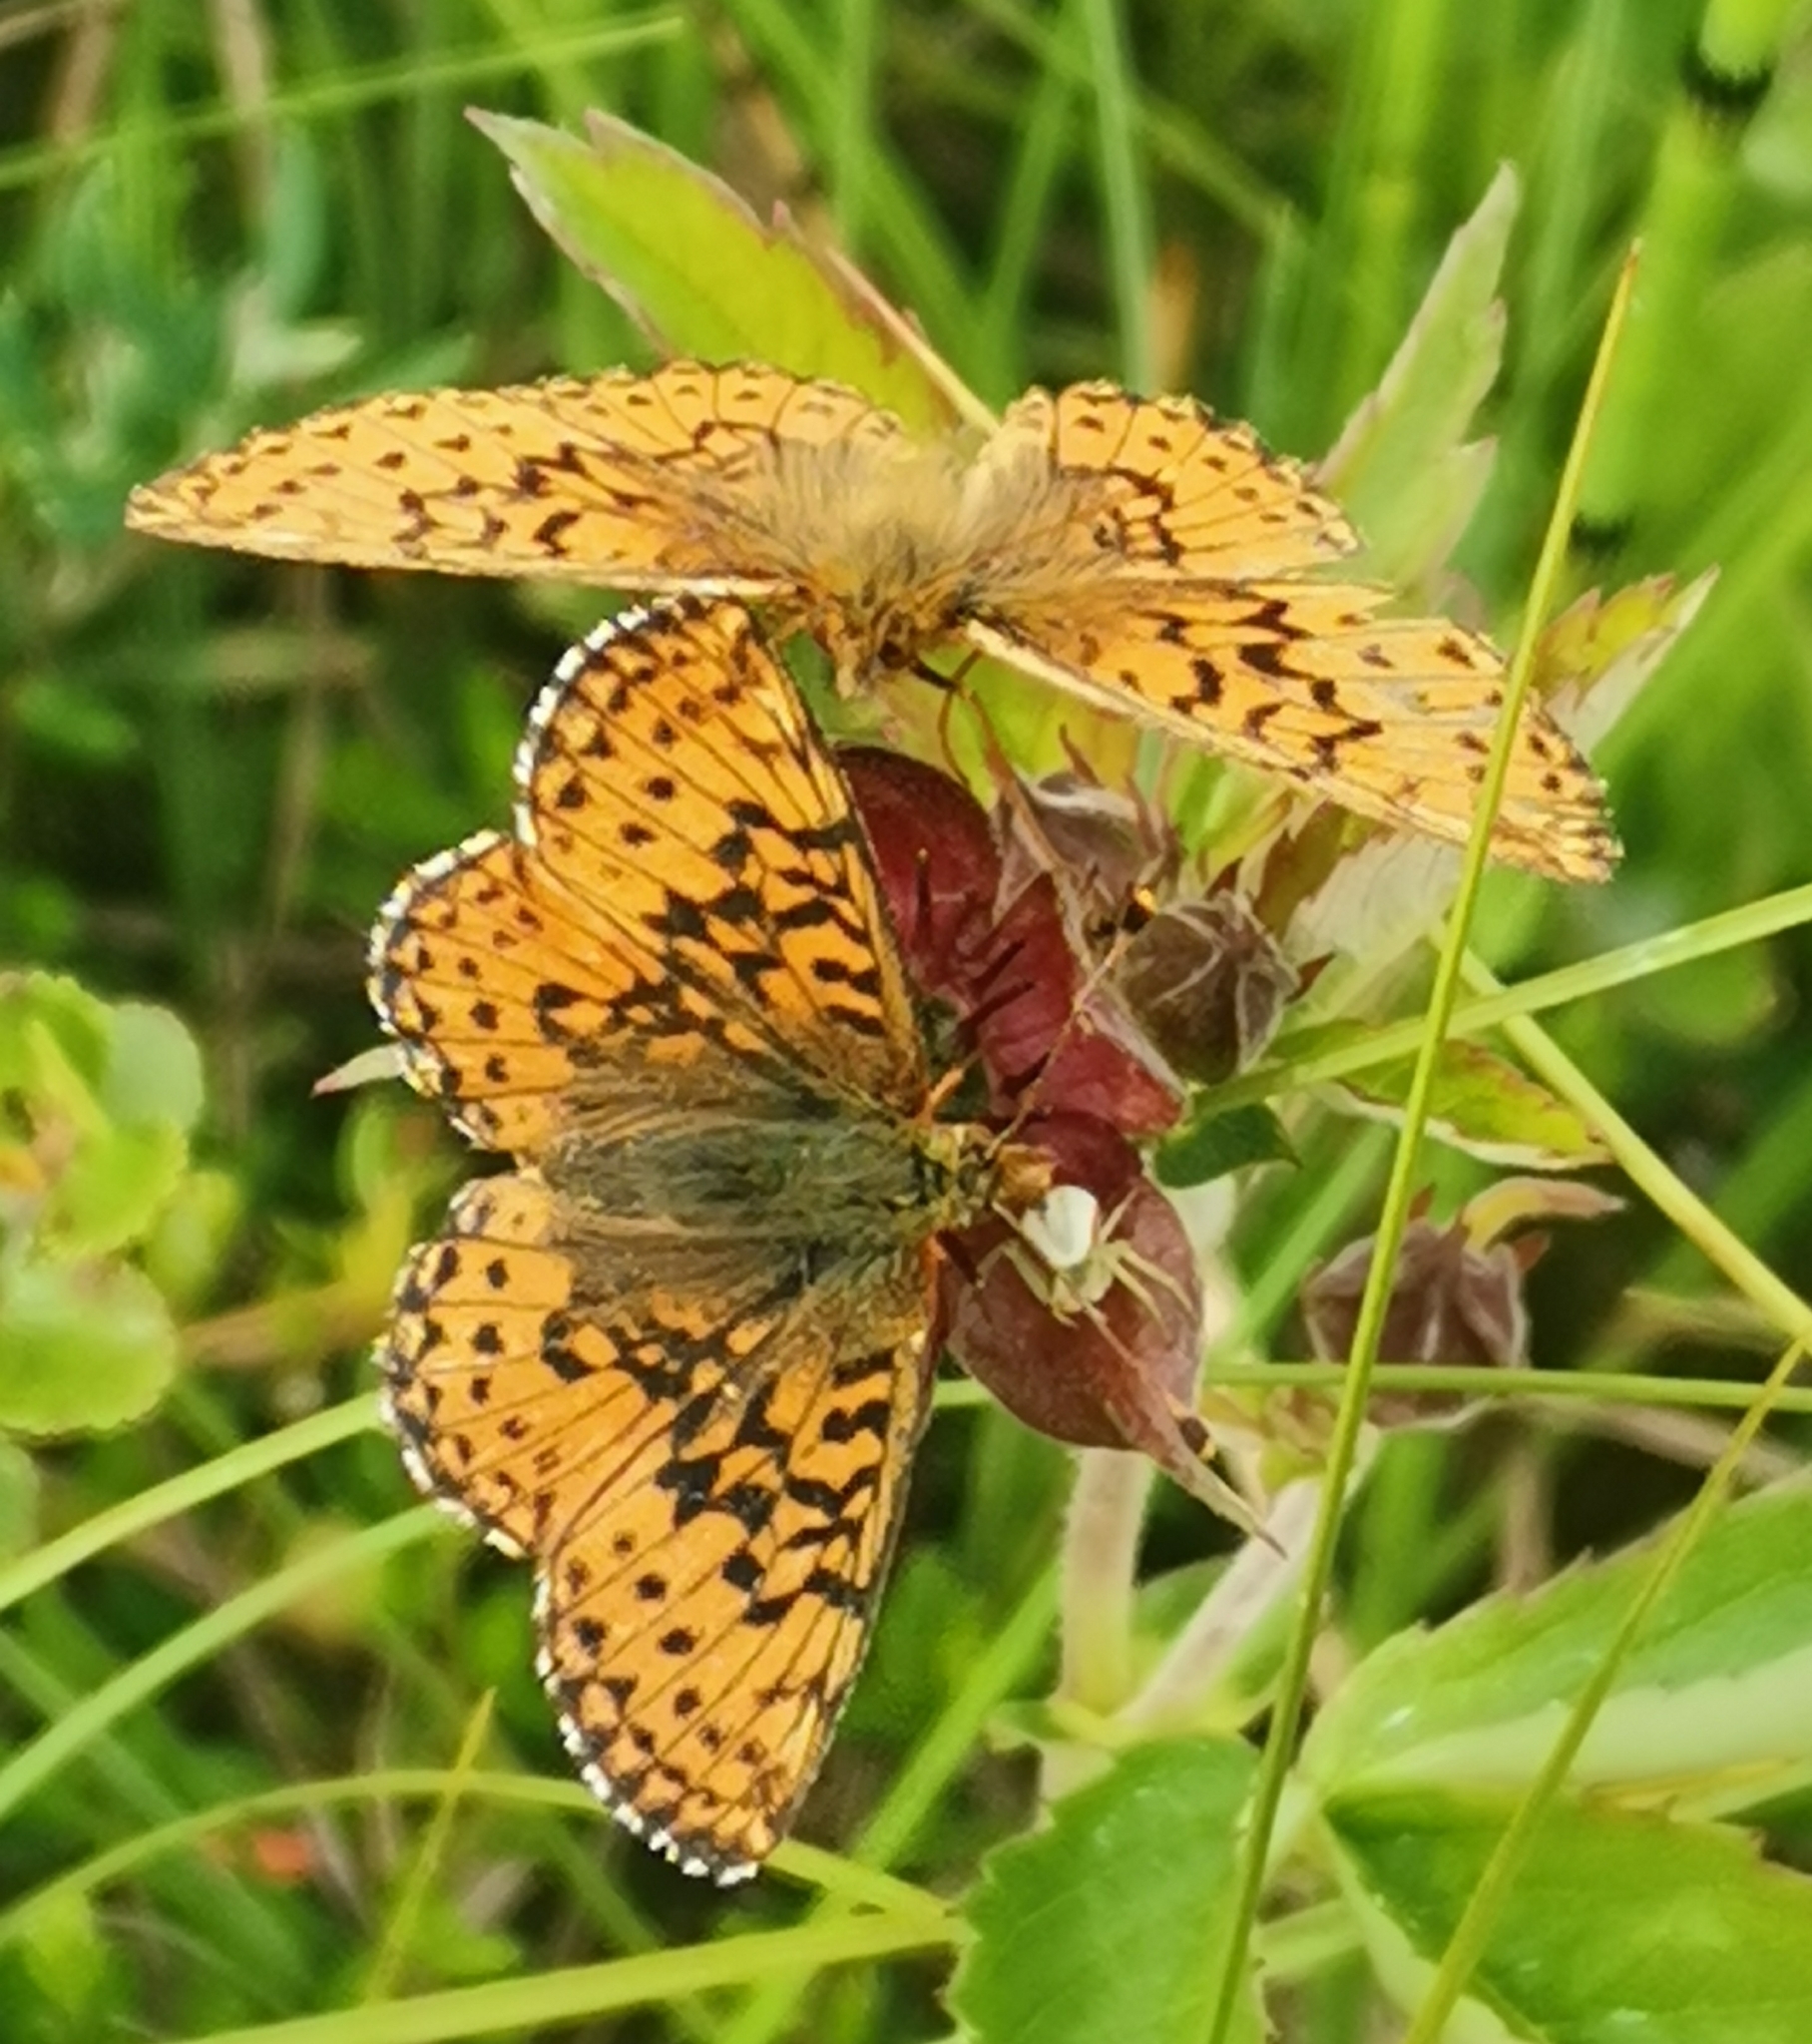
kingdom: Animalia
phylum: Arthropoda
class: Insecta
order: Lepidoptera
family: Nymphalidae
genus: Boloria
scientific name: Boloria aquilonaris
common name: Cranberry fritillary
